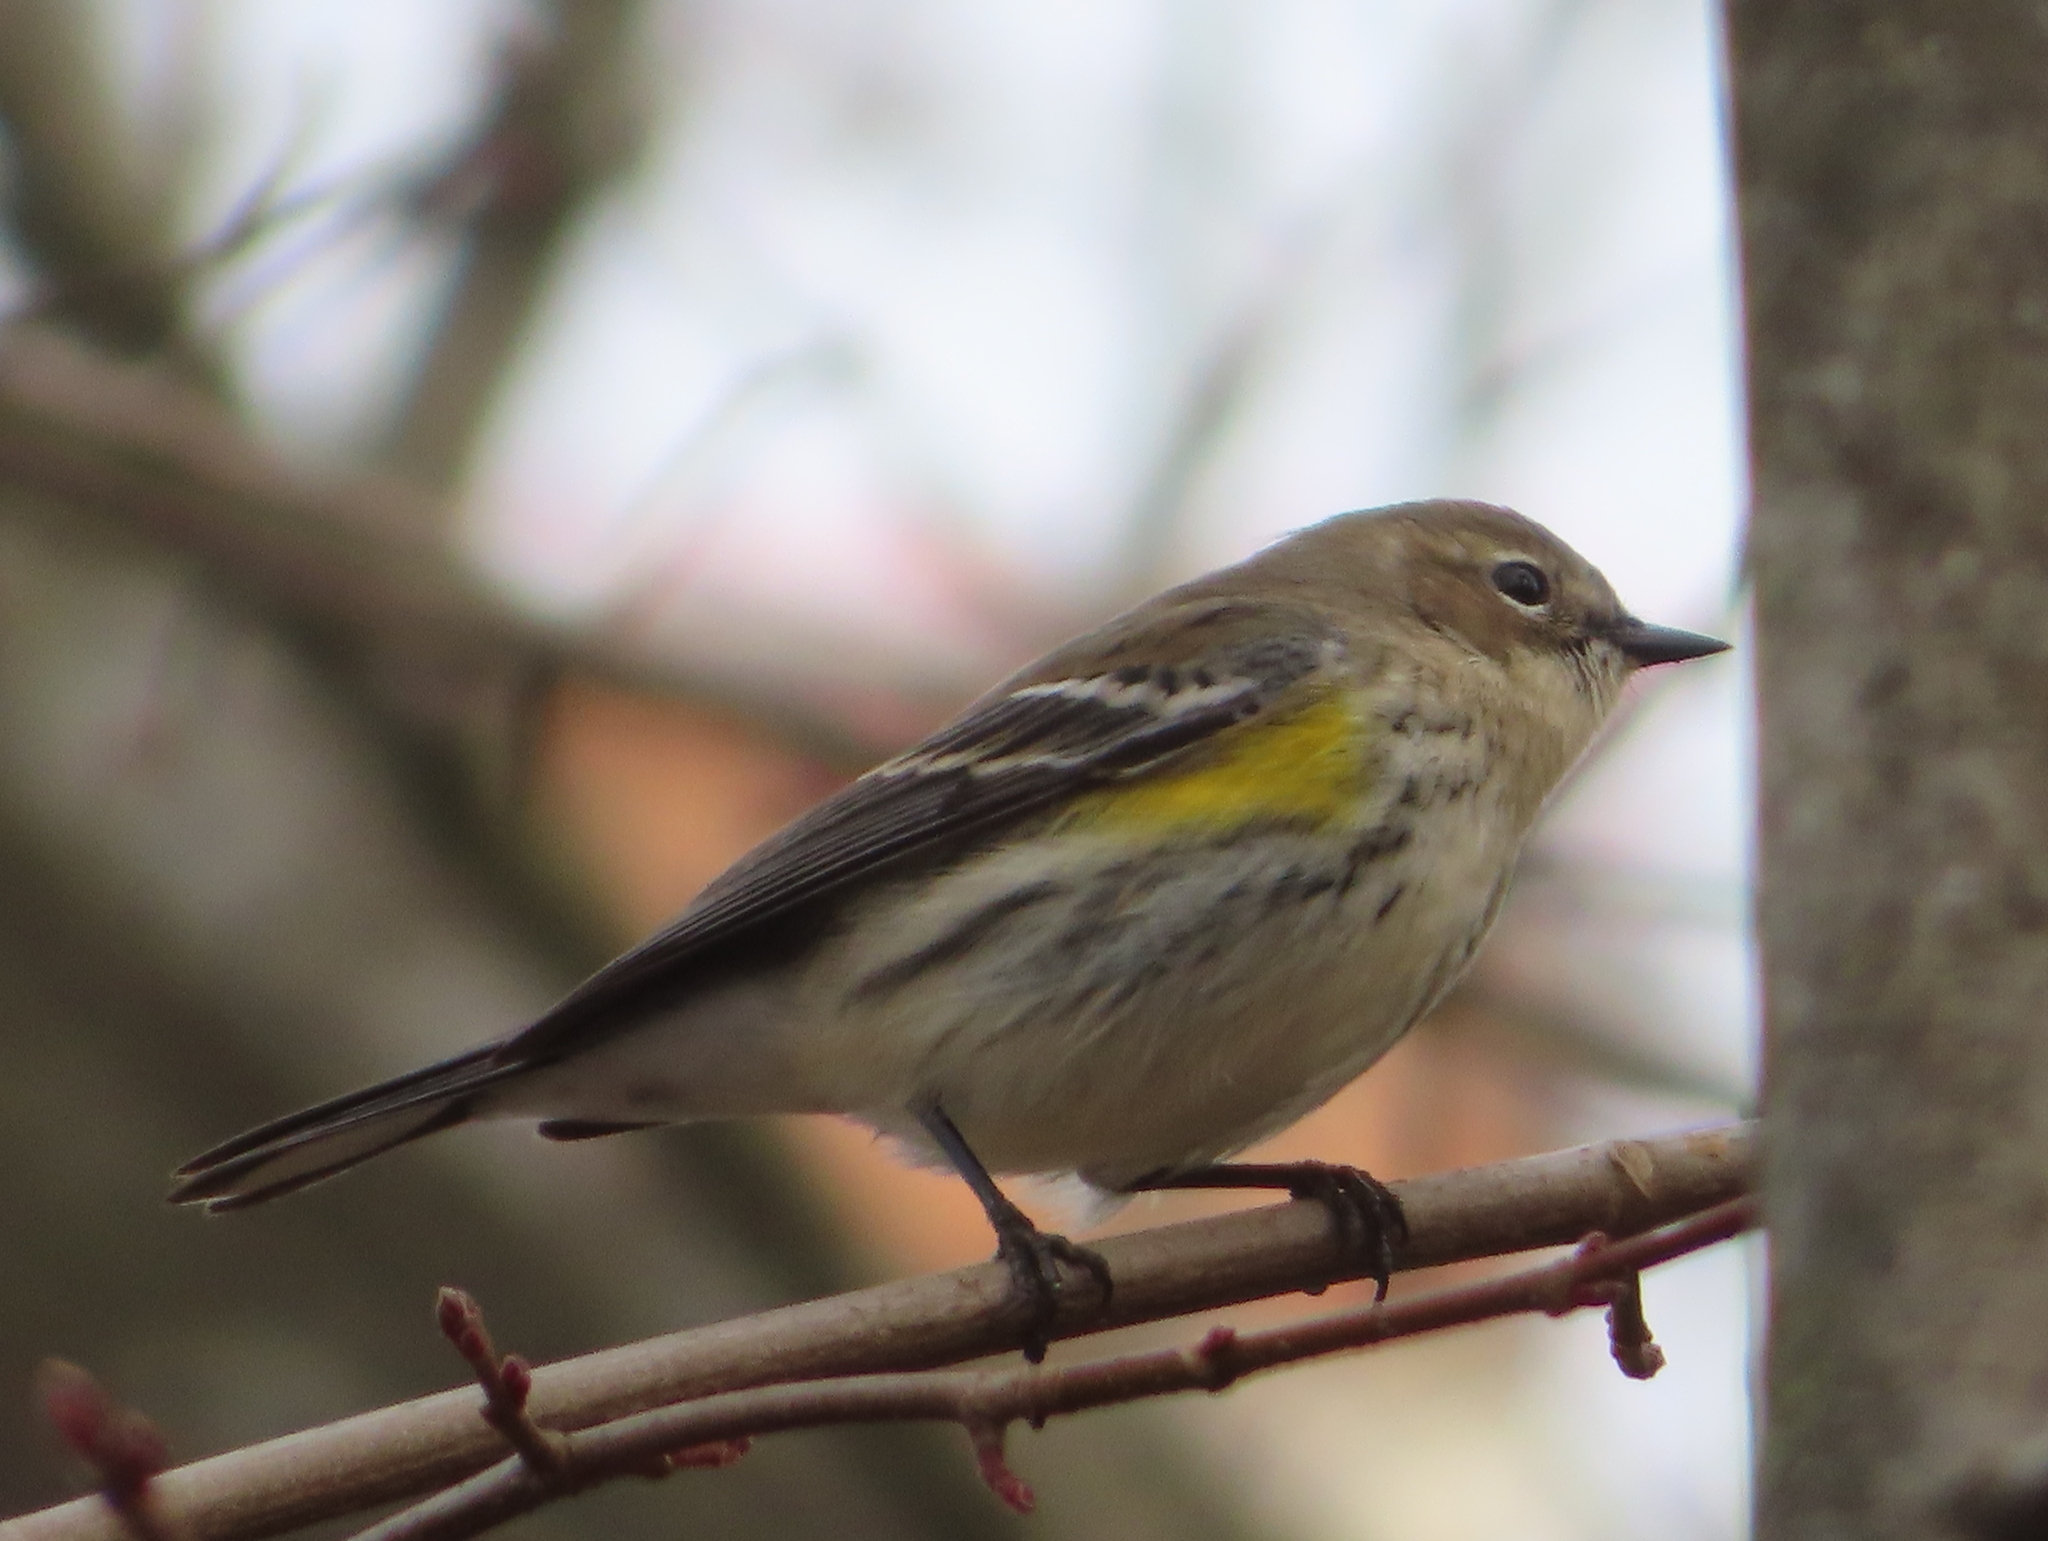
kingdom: Animalia
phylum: Chordata
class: Aves
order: Passeriformes
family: Parulidae
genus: Setophaga
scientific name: Setophaga coronata
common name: Myrtle warbler
